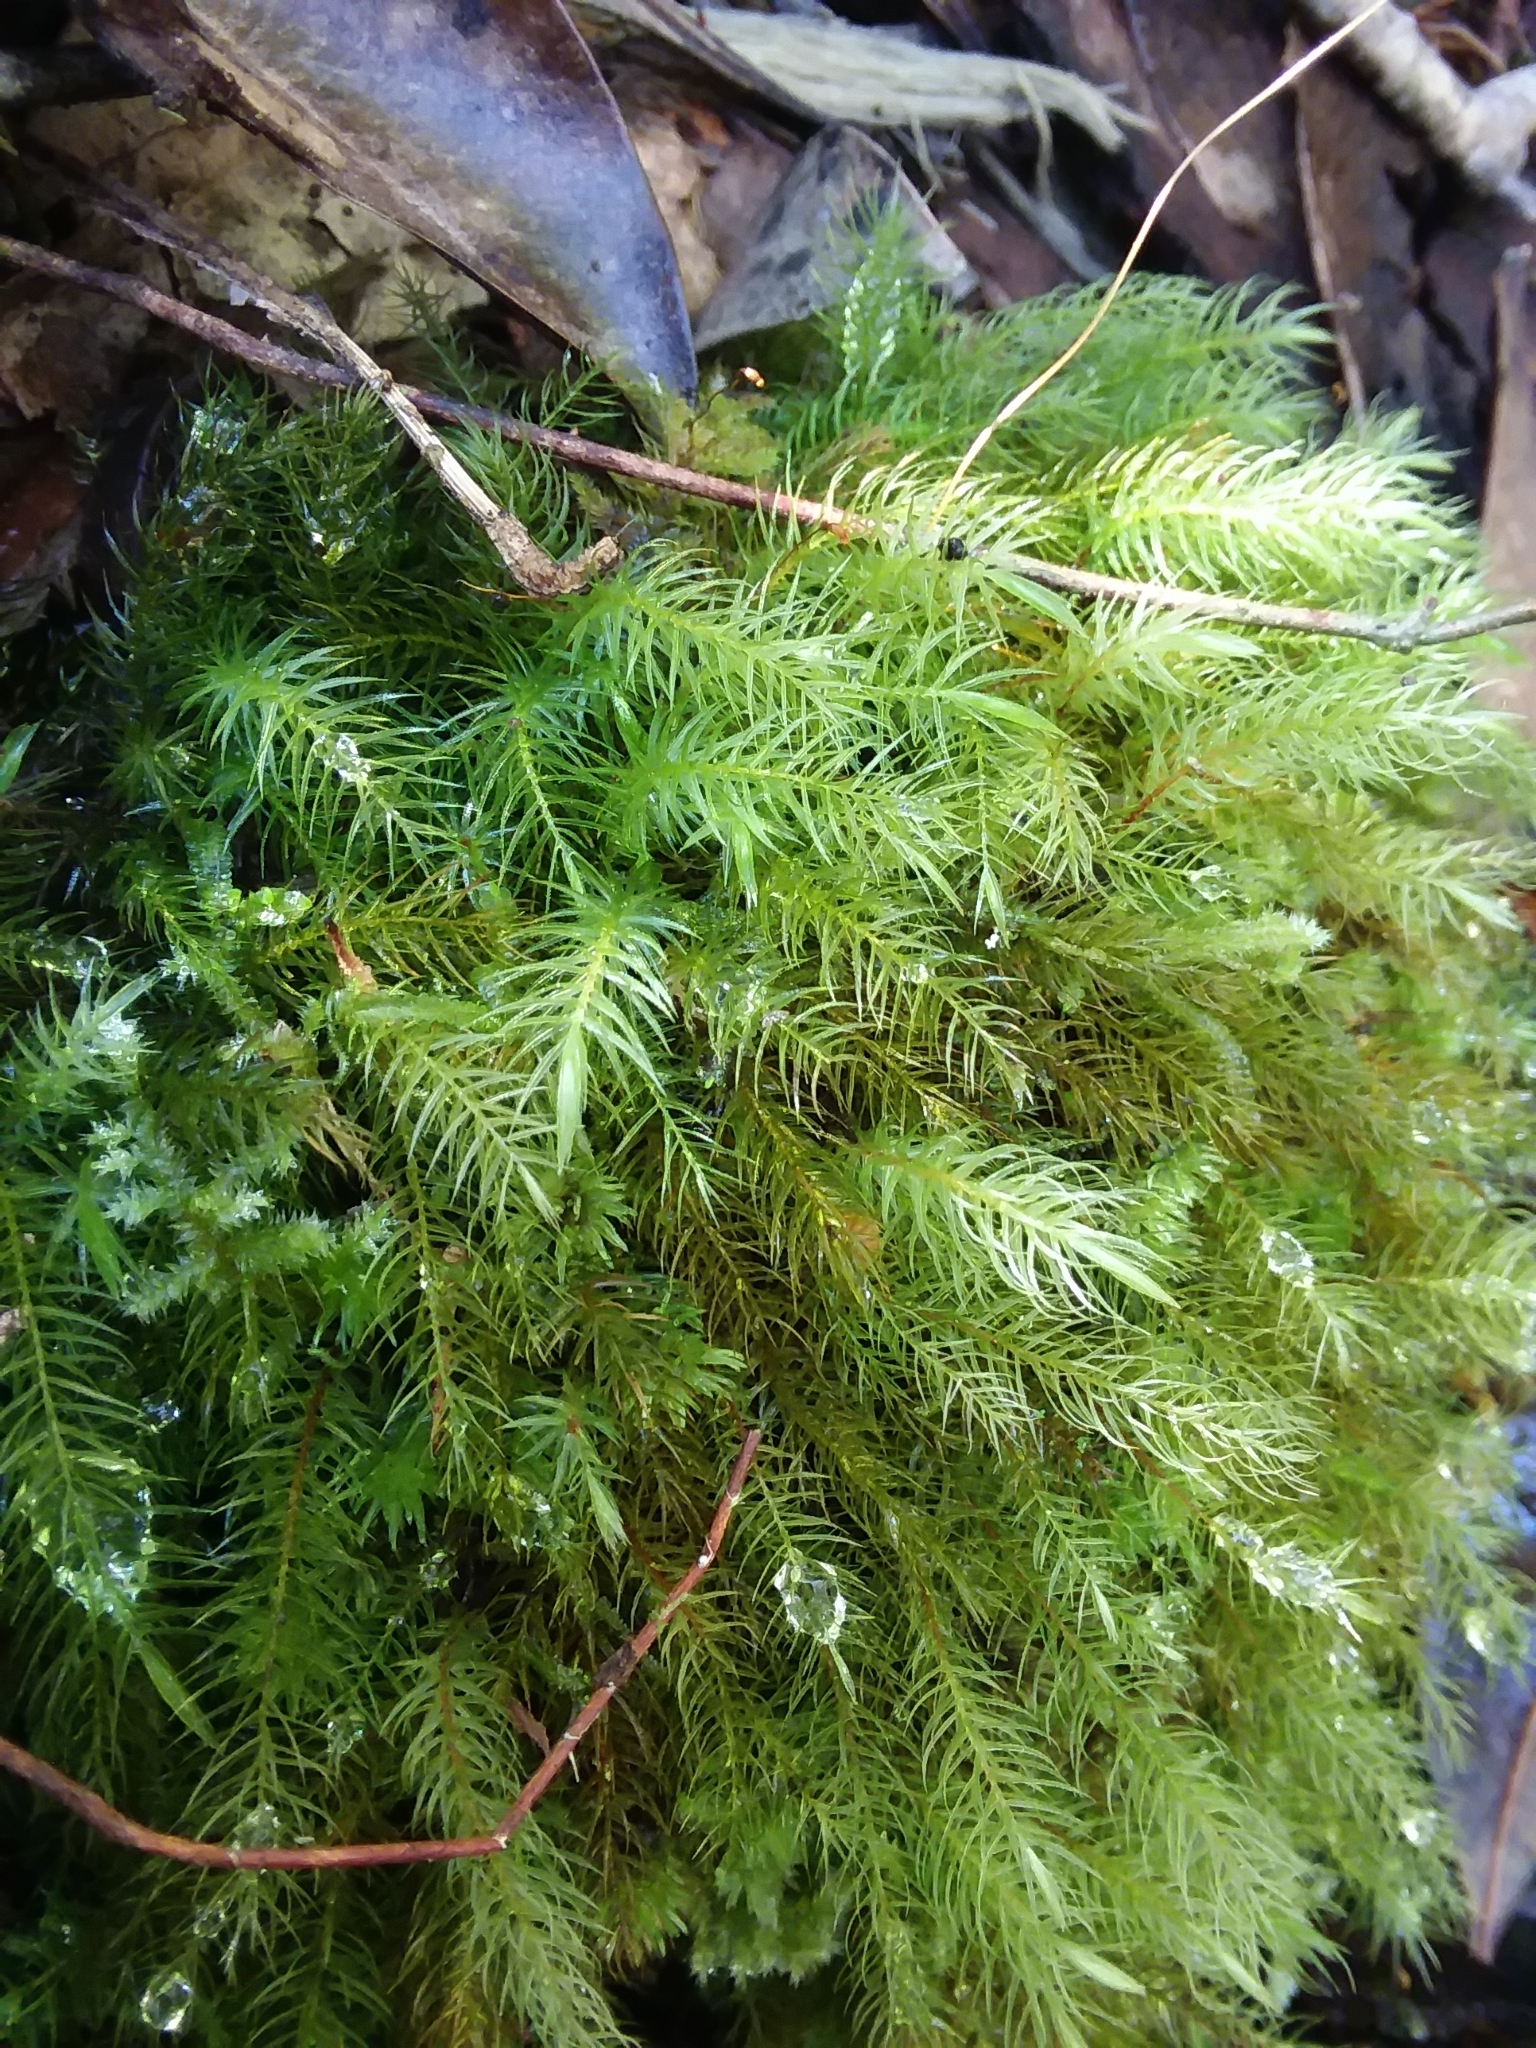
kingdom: Plantae
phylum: Bryophyta
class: Bryopsida
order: Rhizogoniales
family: Calomniaceae
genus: Pyrrhobryum
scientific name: Pyrrhobryum spiniforme
